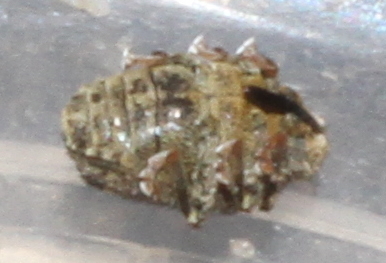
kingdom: Animalia
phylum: Arthropoda
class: Insecta
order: Coleoptera
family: Curculionidae
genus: Ceutorhynchus
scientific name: Ceutorhynchus pallidactylus
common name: Cabbage stem weavil
